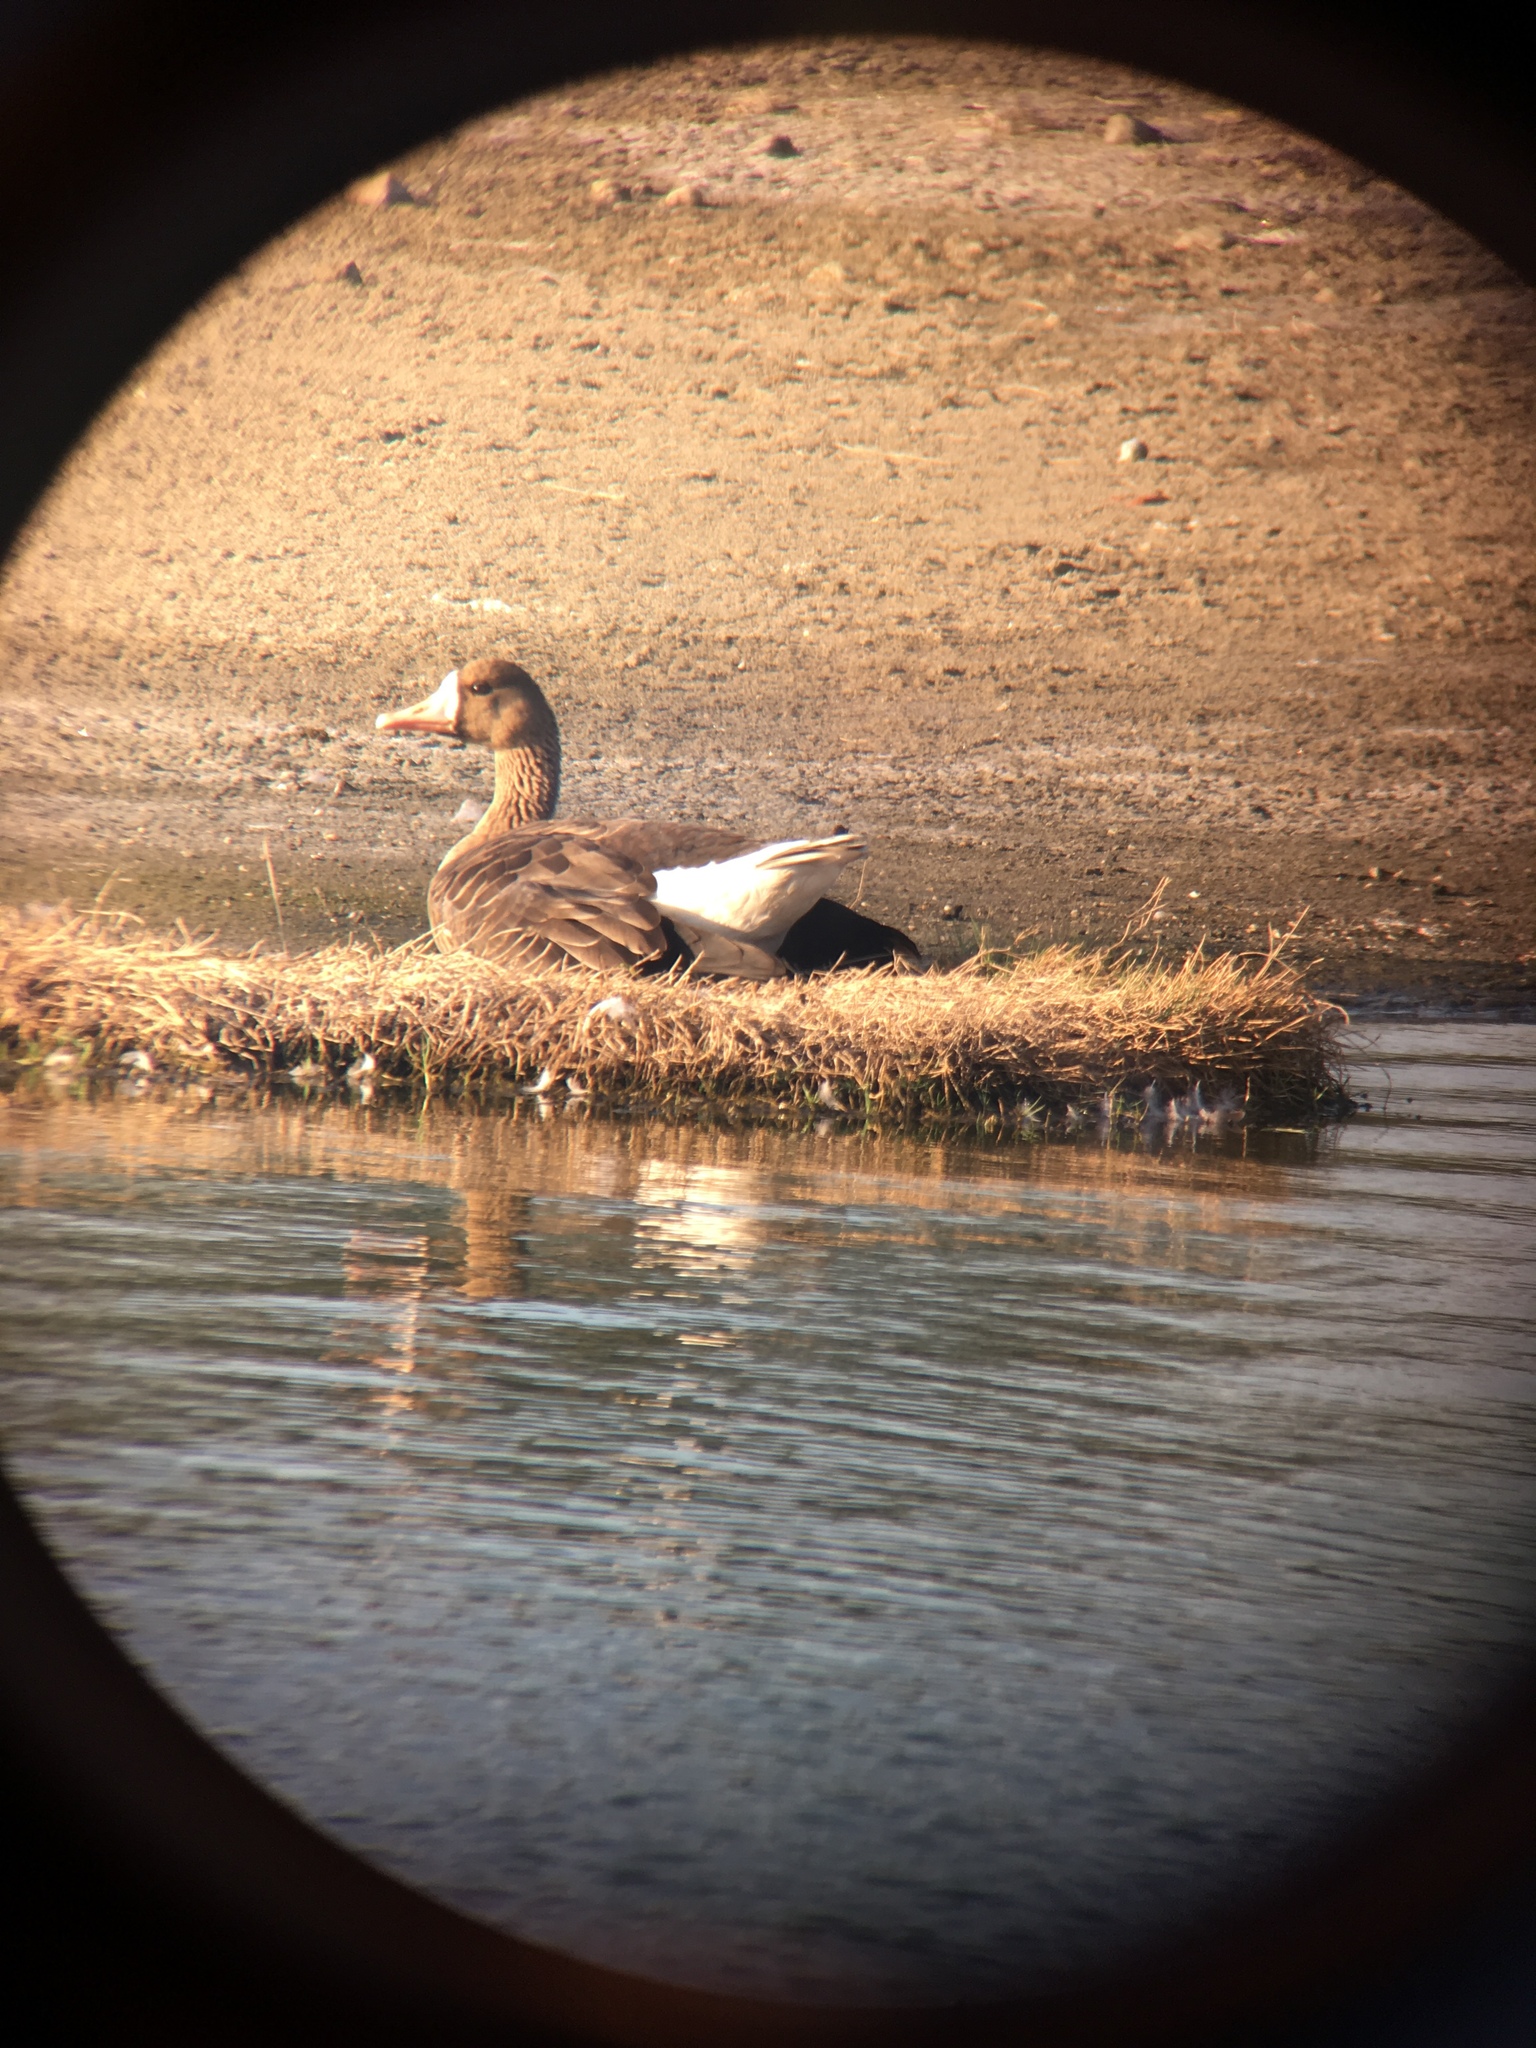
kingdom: Animalia
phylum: Chordata
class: Aves
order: Anseriformes
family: Anatidae
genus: Anser
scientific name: Anser albifrons
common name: Greater white-fronted goose
